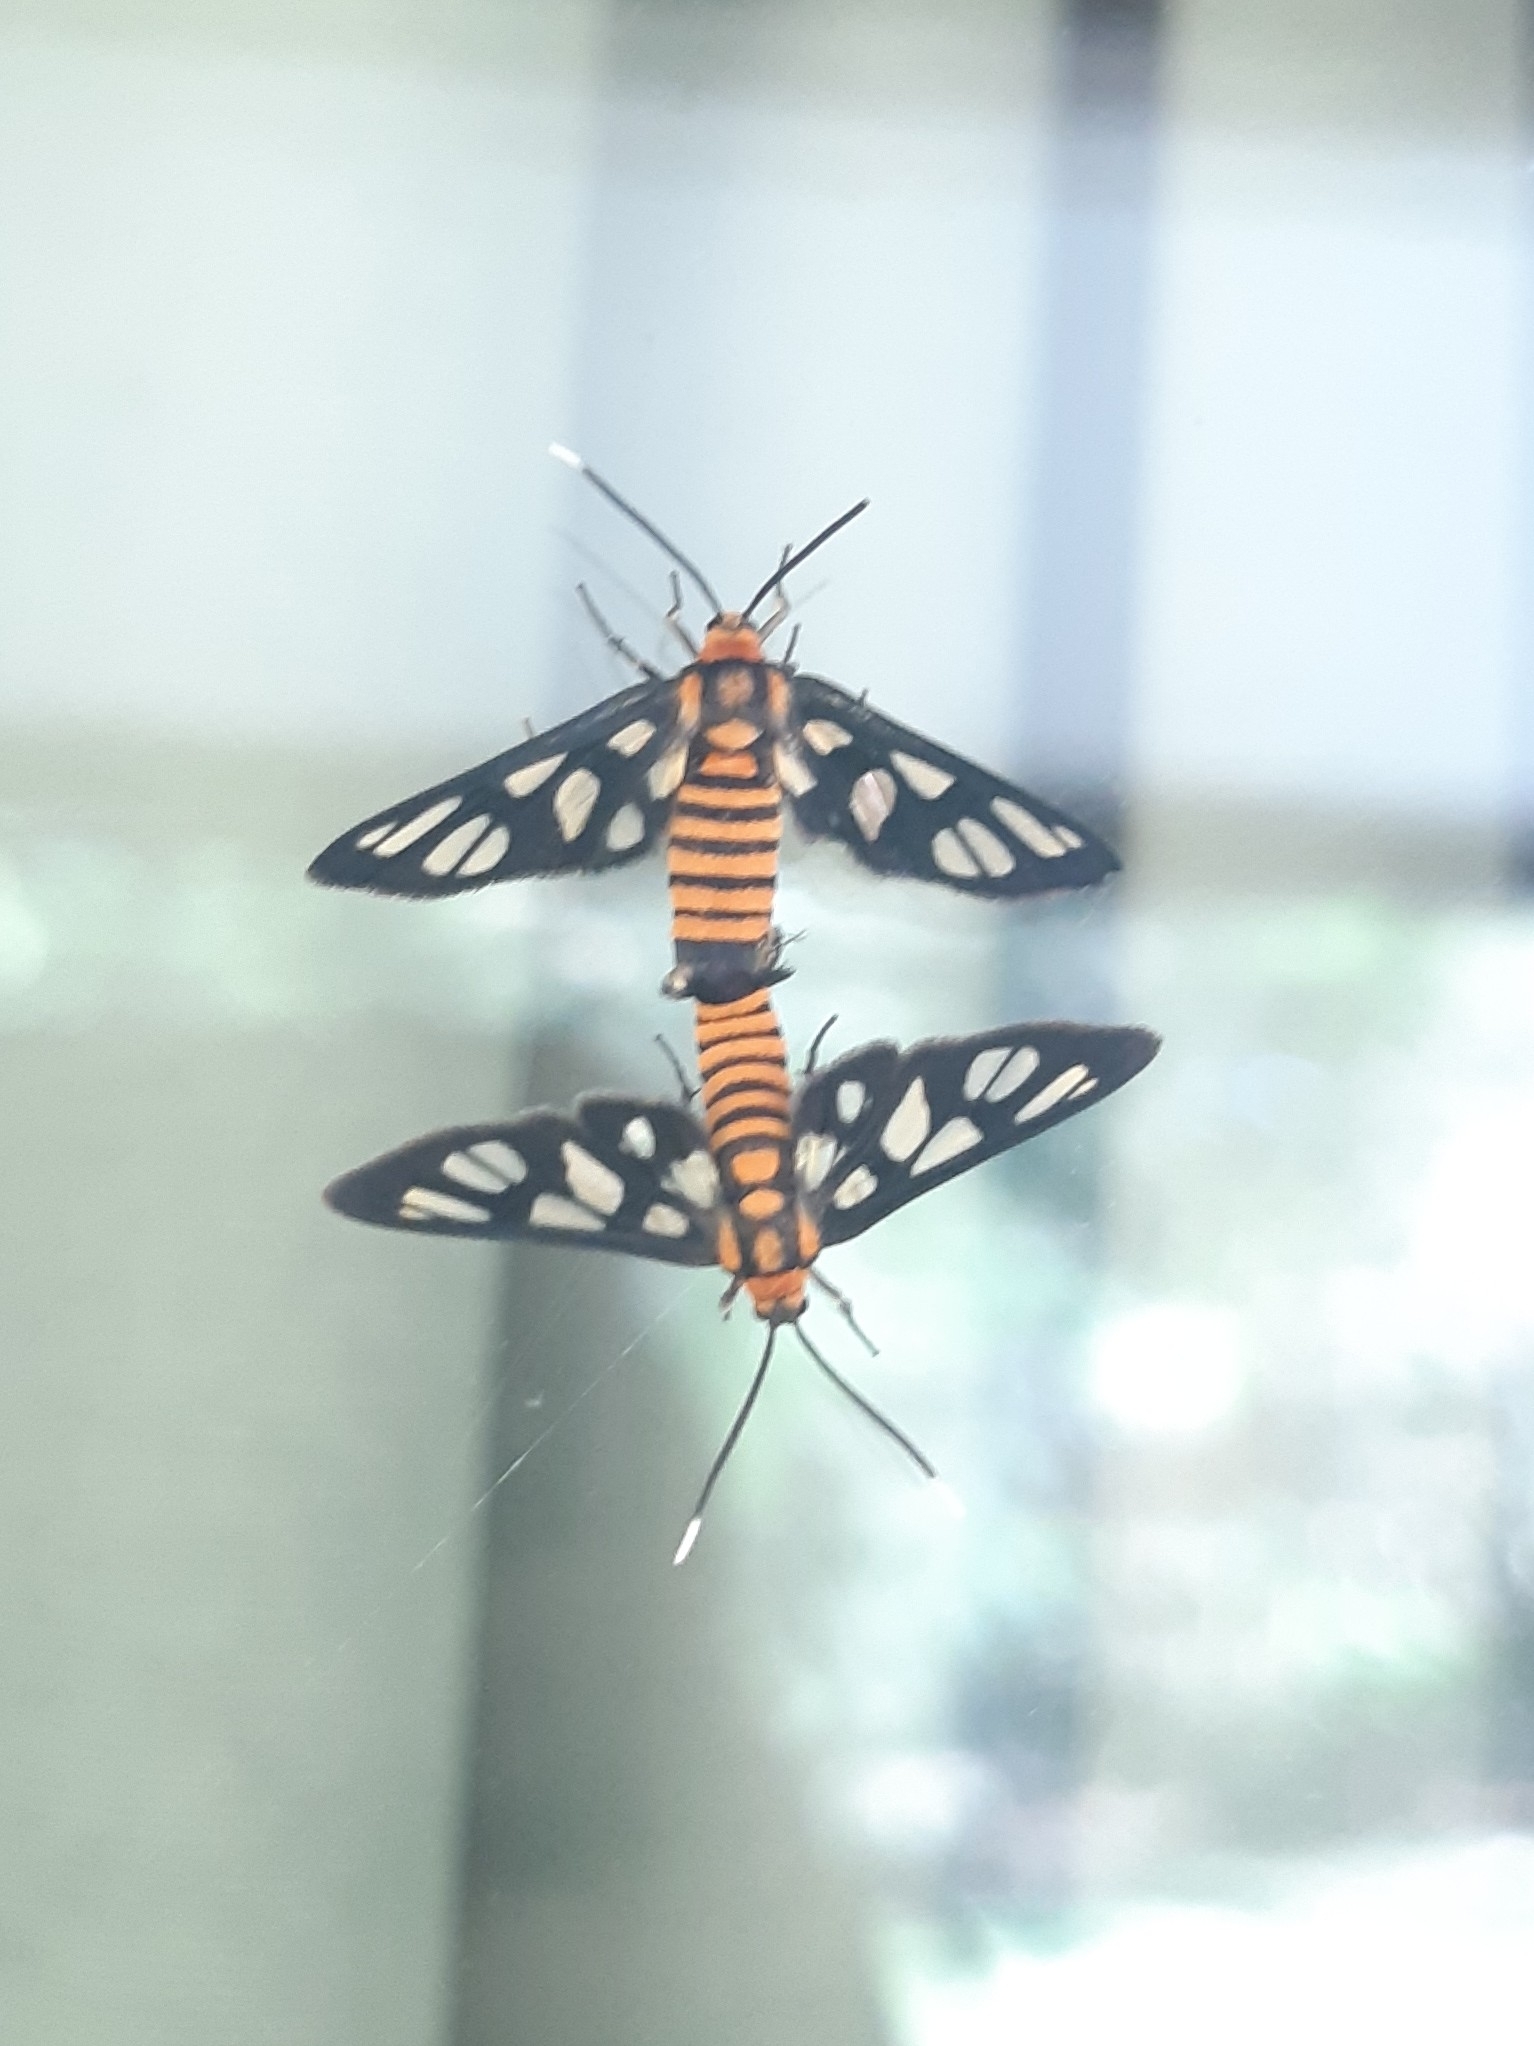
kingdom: Animalia
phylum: Arthropoda
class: Insecta
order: Lepidoptera
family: Erebidae
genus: Amata
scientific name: Amata huebneri
